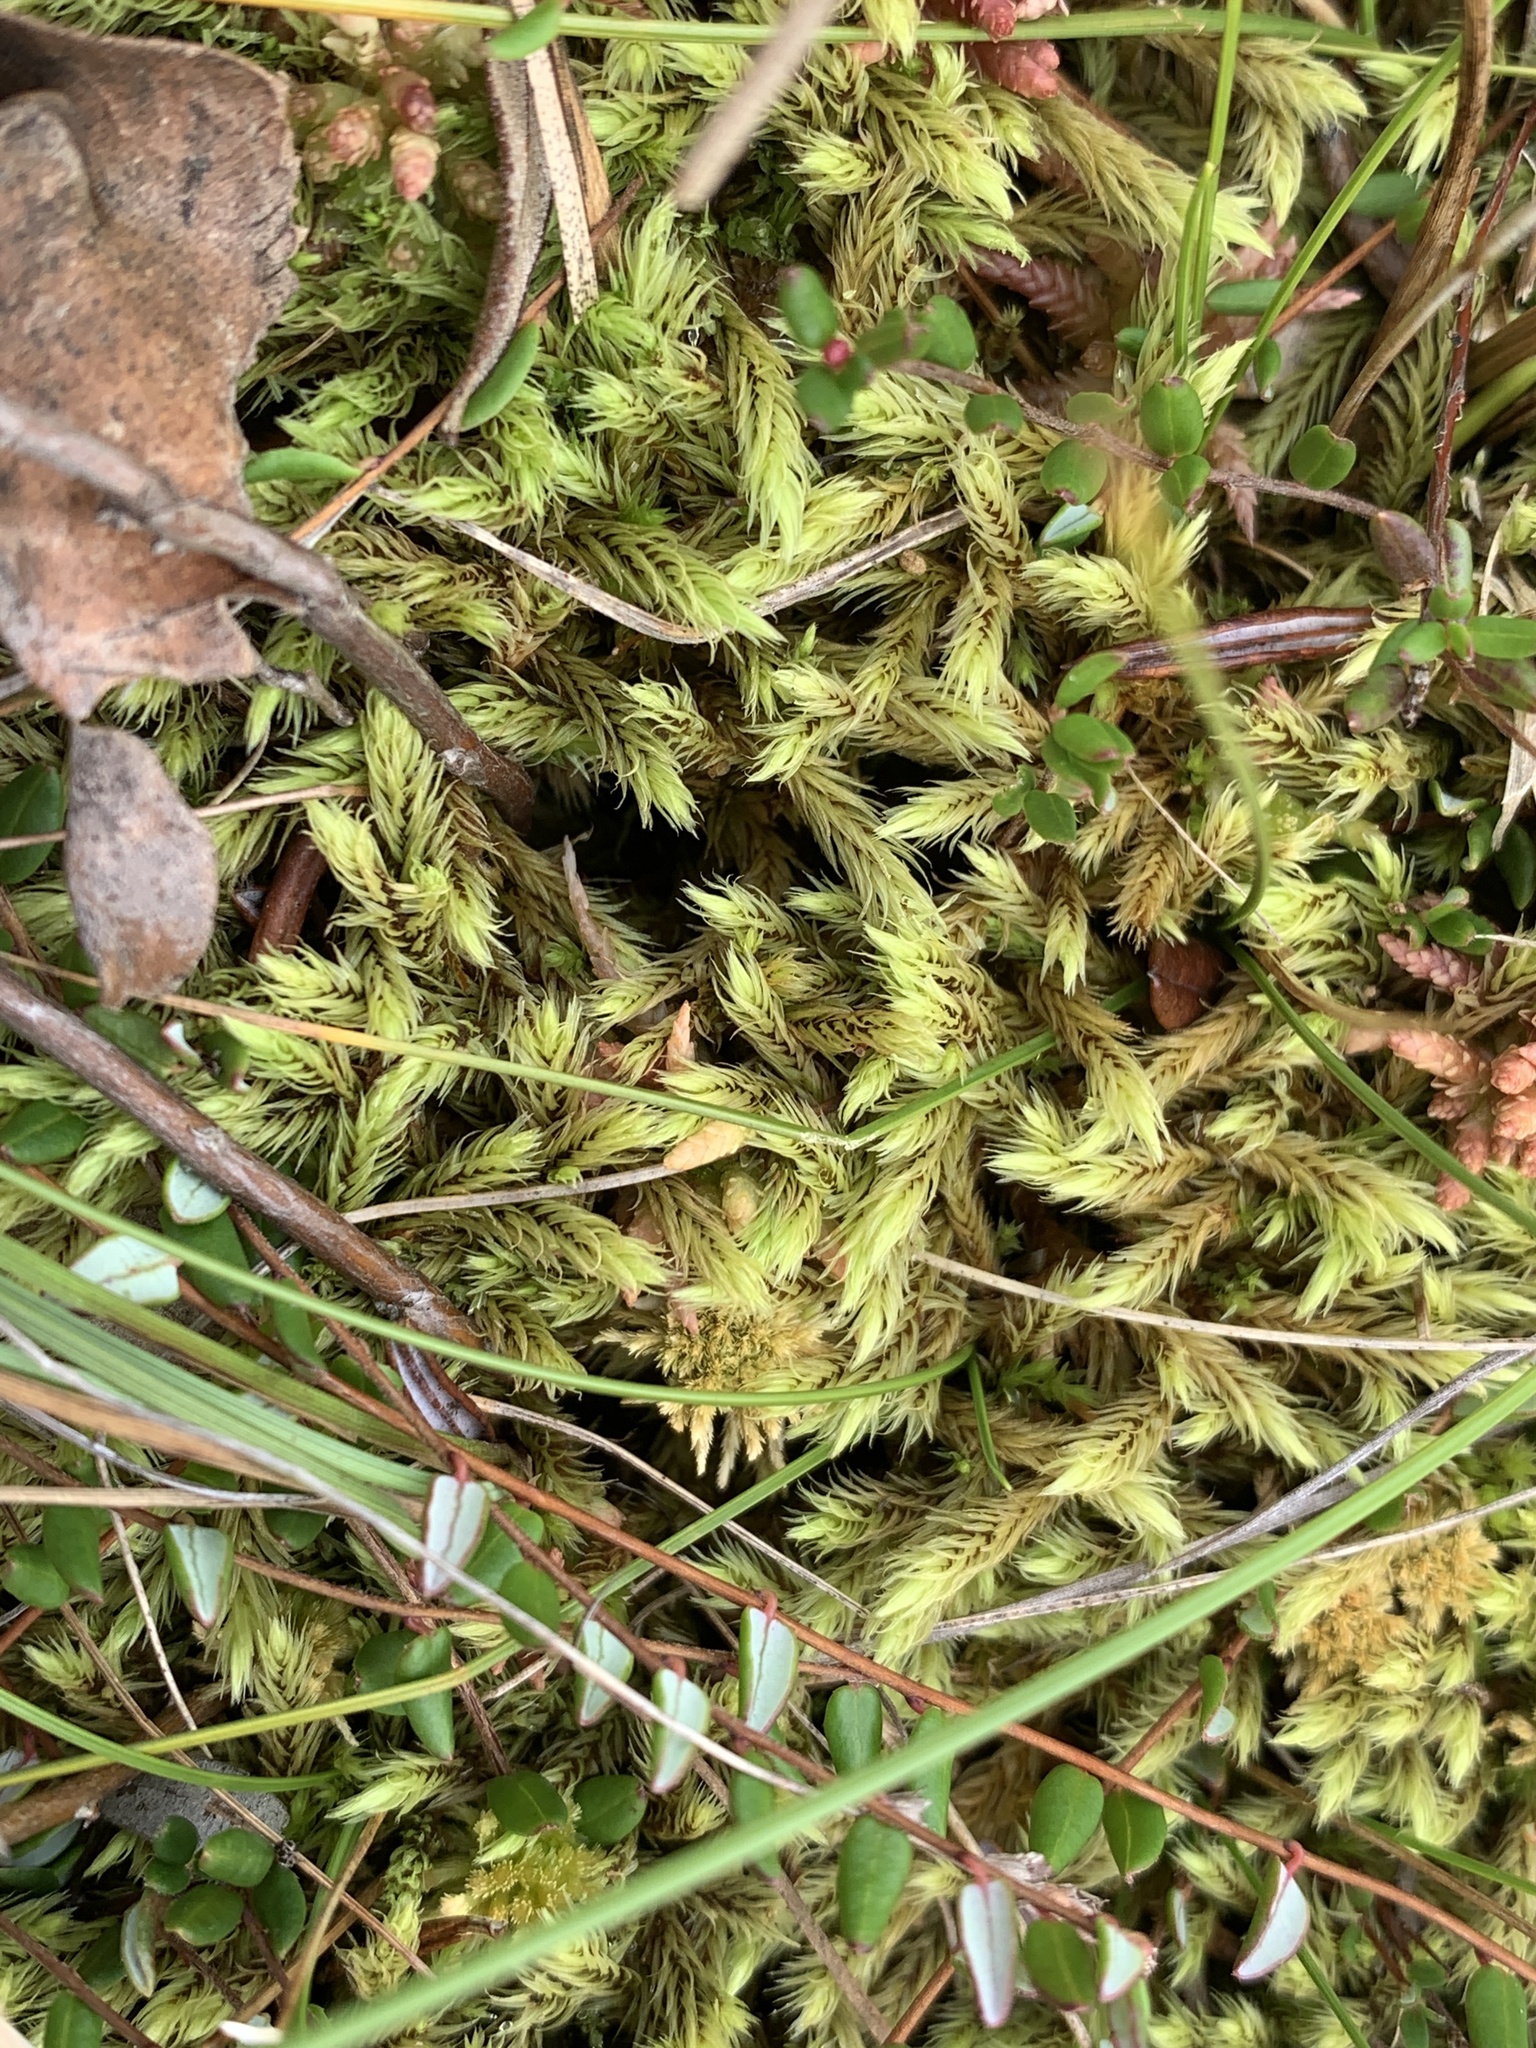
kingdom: Plantae
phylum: Bryophyta
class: Bryopsida
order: Aulacomniales
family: Aulacomniaceae
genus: Aulacomnium
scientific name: Aulacomnium palustre
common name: Bog groove-moss
